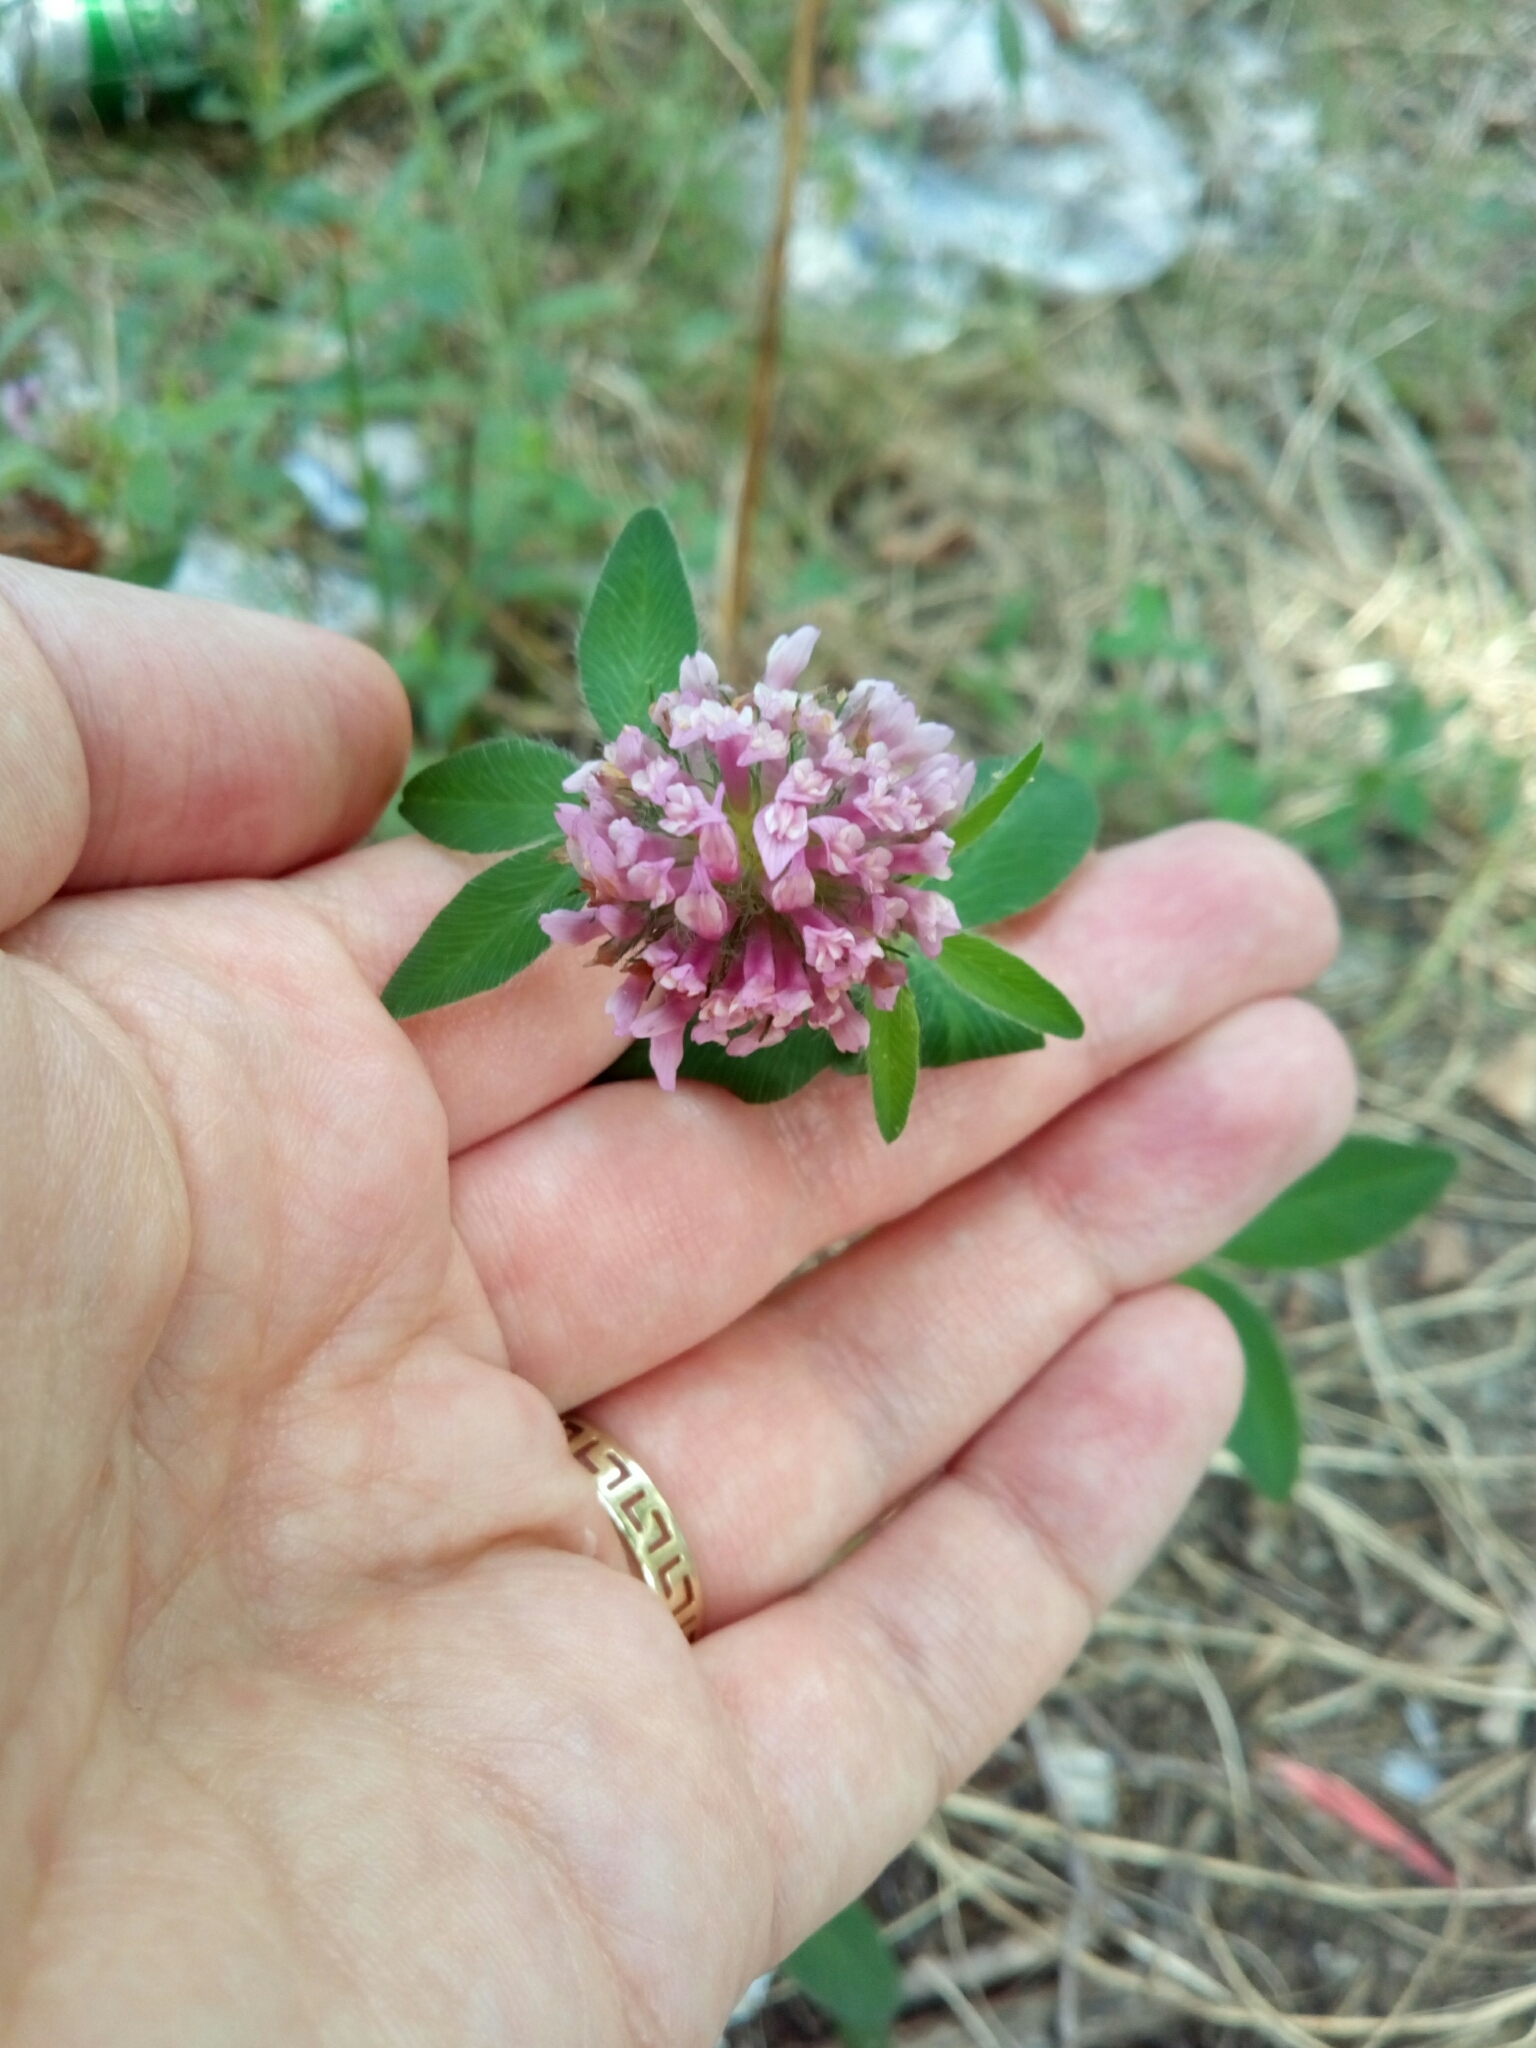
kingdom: Plantae
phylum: Tracheophyta
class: Magnoliopsida
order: Fabales
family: Fabaceae
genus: Trifolium
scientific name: Trifolium pratense
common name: Red clover
